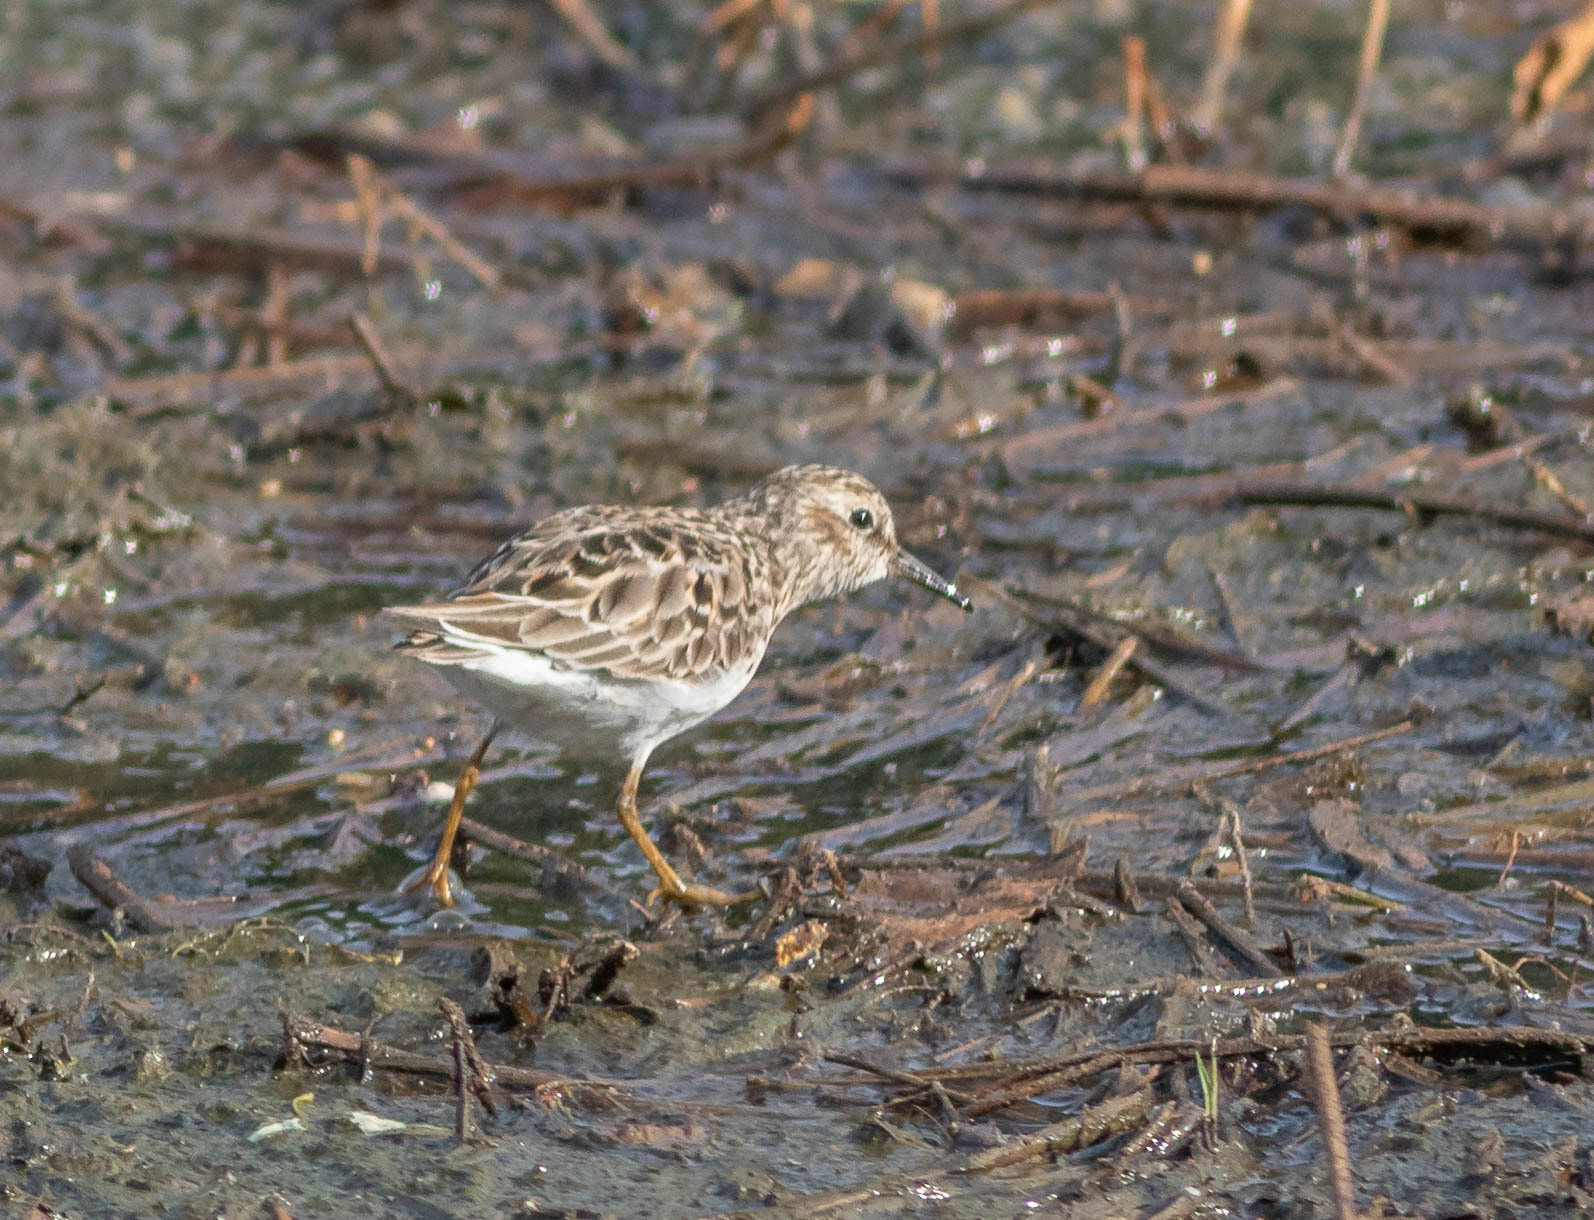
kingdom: Animalia
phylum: Chordata
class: Aves
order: Charadriiformes
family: Scolopacidae
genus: Calidris
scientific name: Calidris minutilla
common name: Least sandpiper
